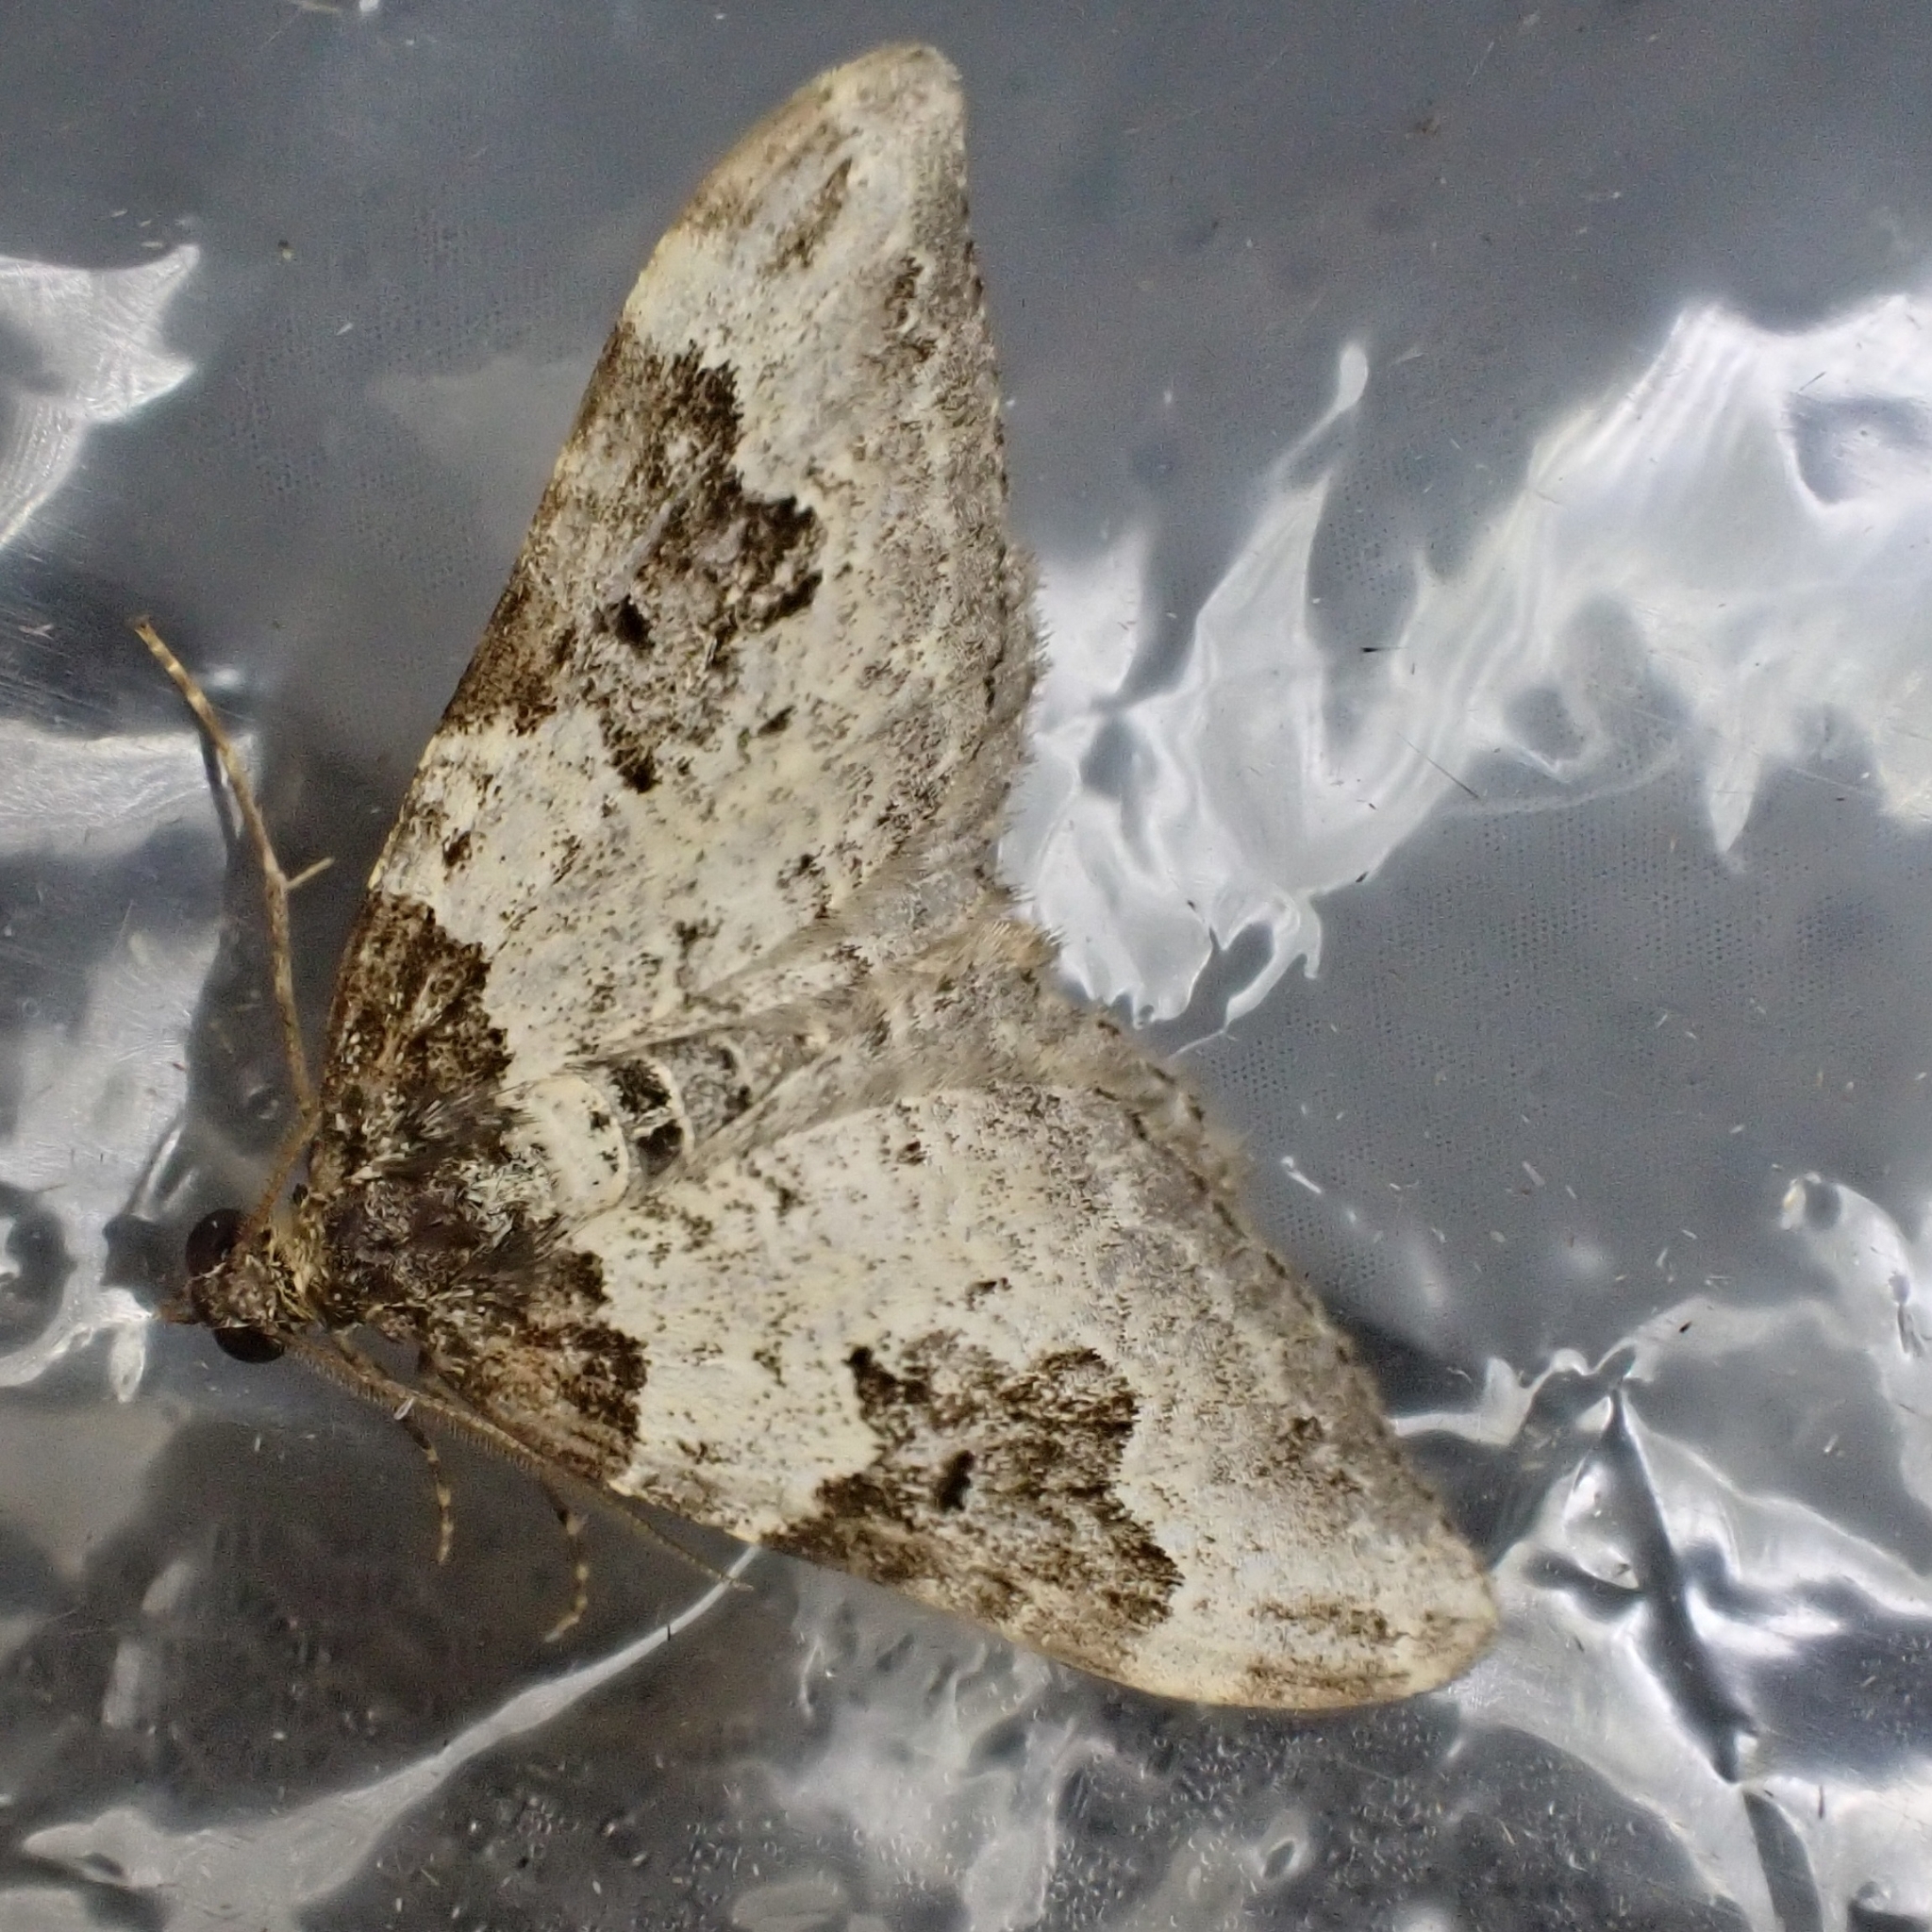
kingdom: Animalia
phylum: Arthropoda
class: Insecta
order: Lepidoptera
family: Geometridae
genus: Xanthorhoe
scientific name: Xanthorhoe fluctuata
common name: Garden carpet
